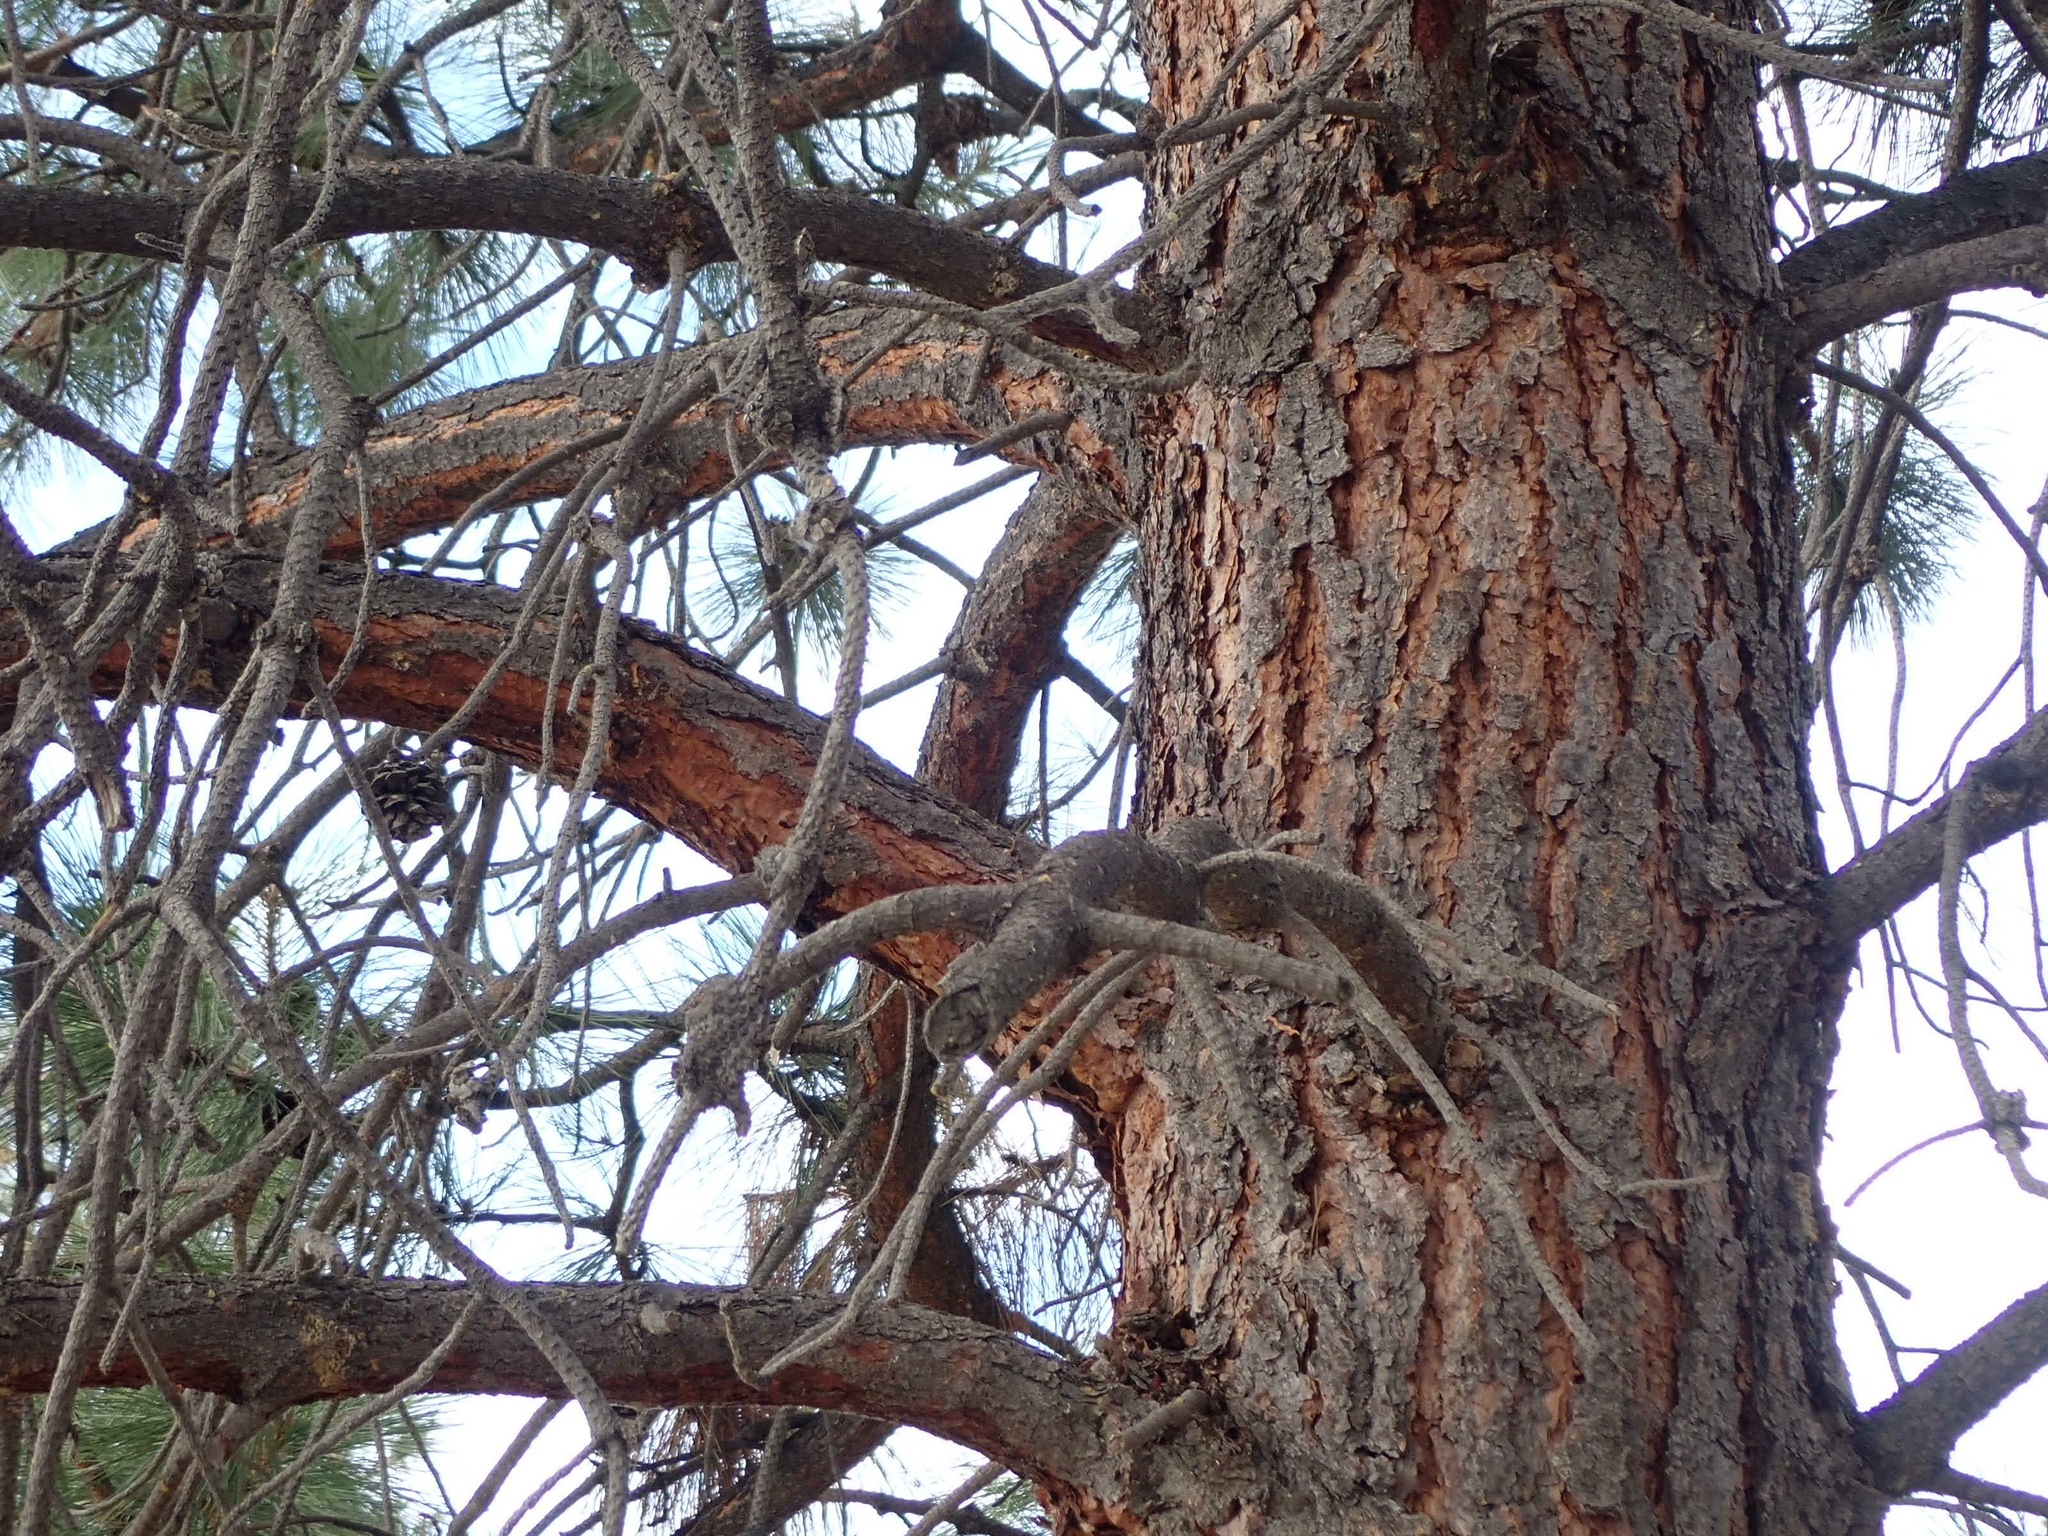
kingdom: Plantae
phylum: Tracheophyta
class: Pinopsida
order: Pinales
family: Pinaceae
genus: Pinus
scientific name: Pinus ponderosa
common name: Western yellow-pine
